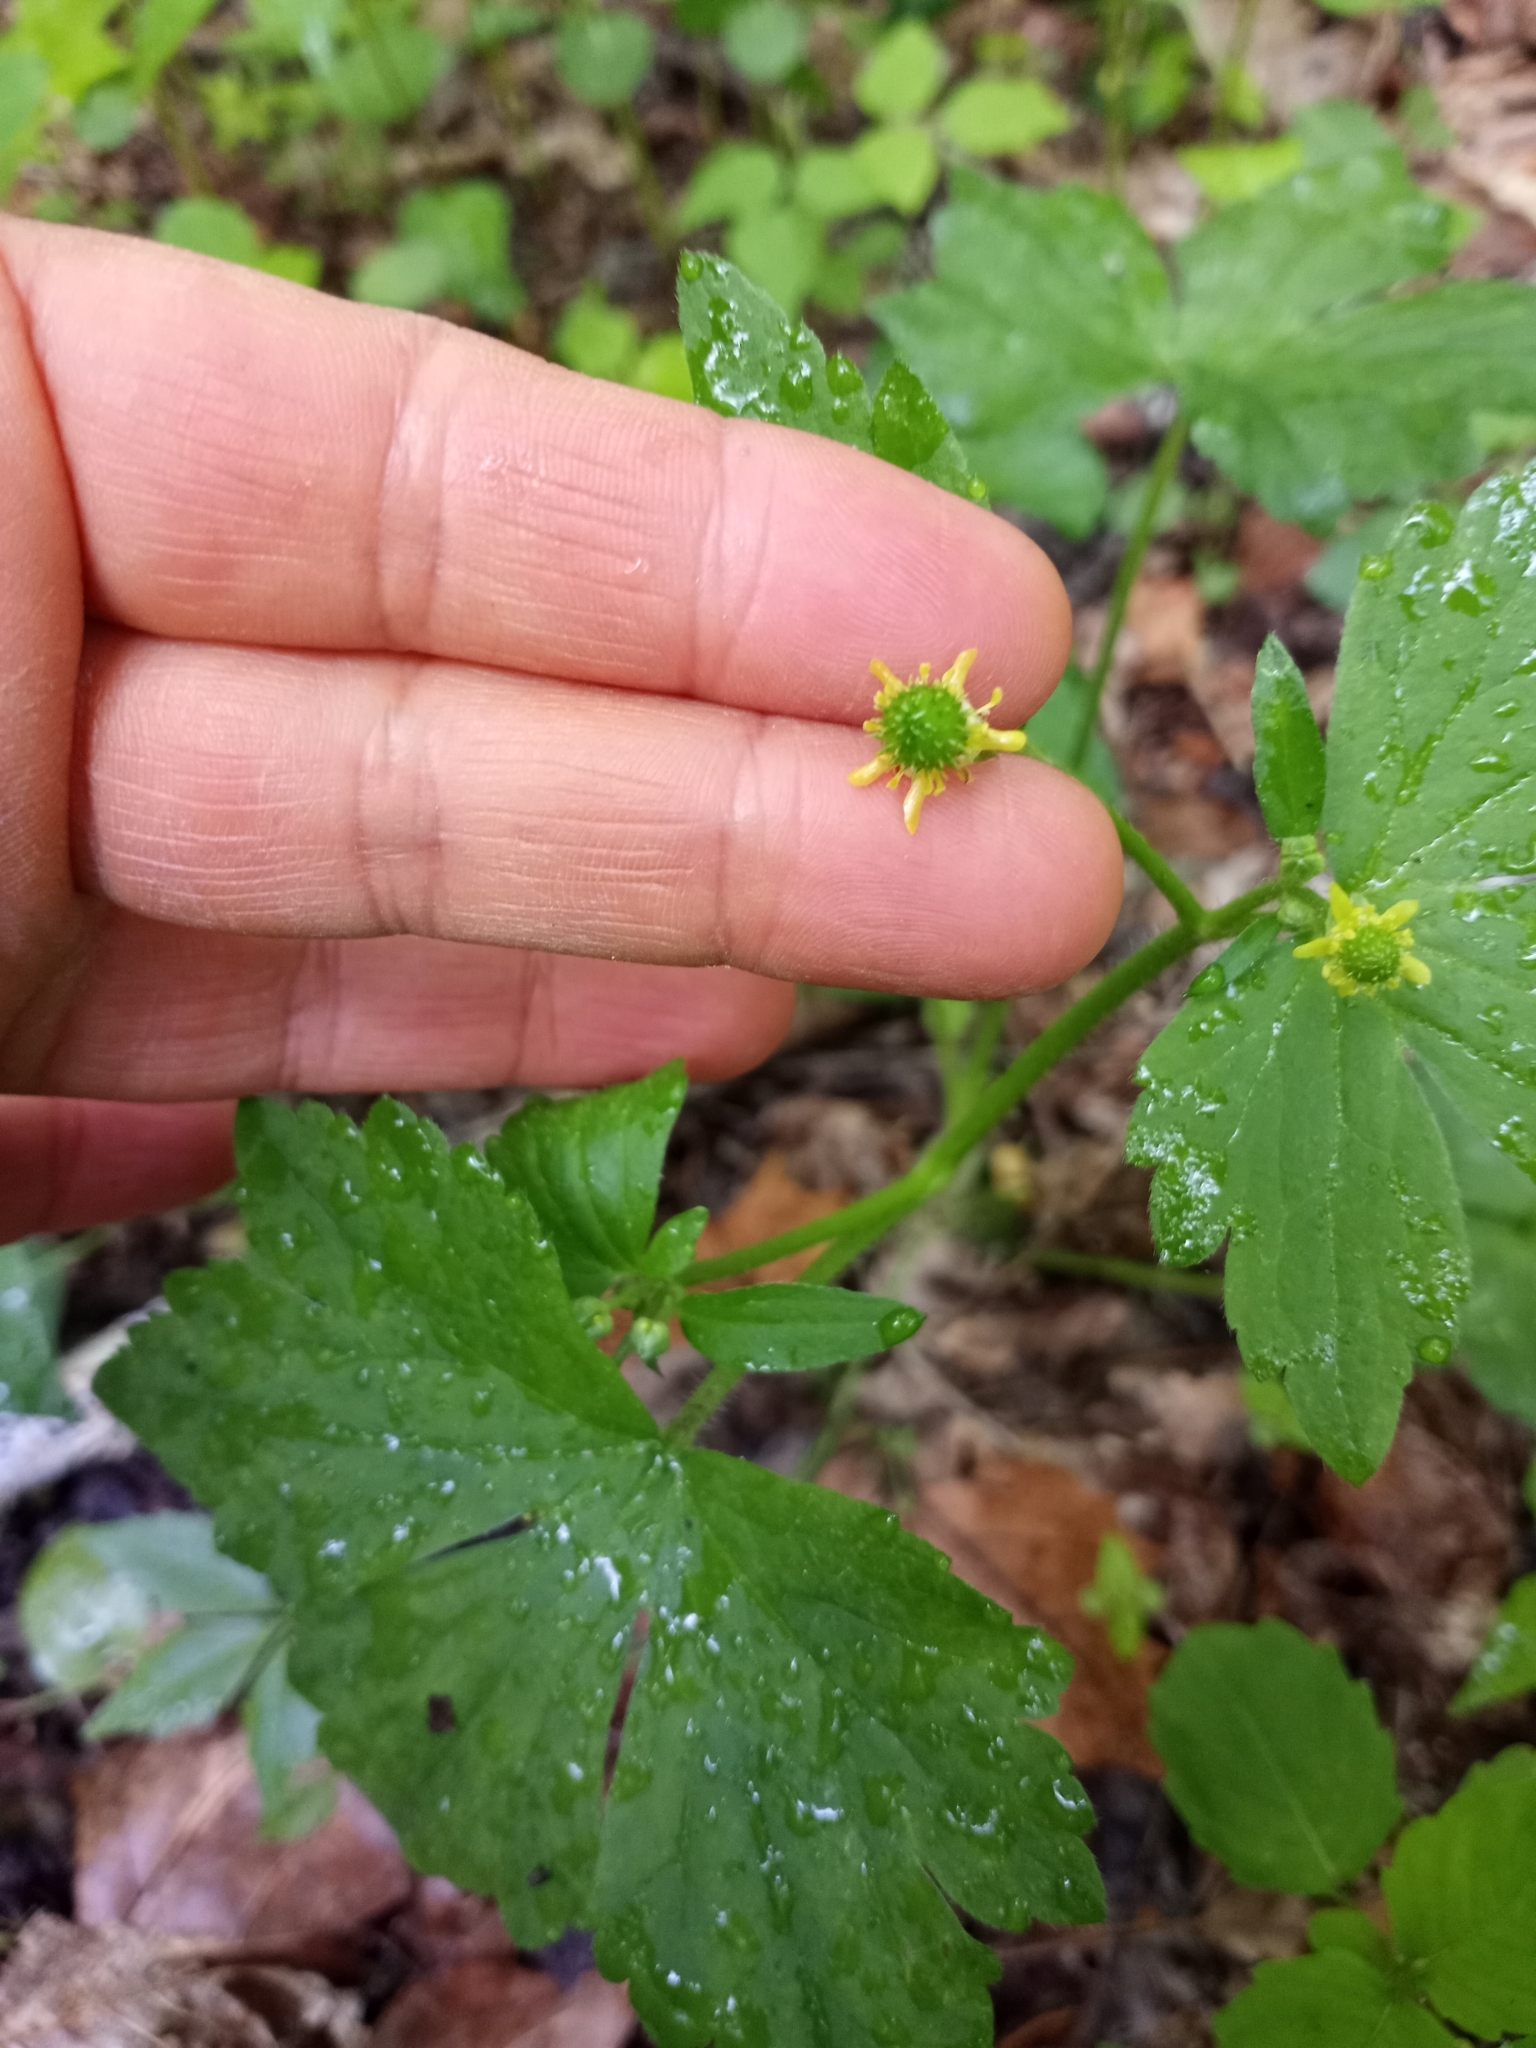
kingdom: Plantae
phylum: Tracheophyta
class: Magnoliopsida
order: Ranunculales
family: Ranunculaceae
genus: Ranunculus
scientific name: Ranunculus recurvatus
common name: Blisterwort
